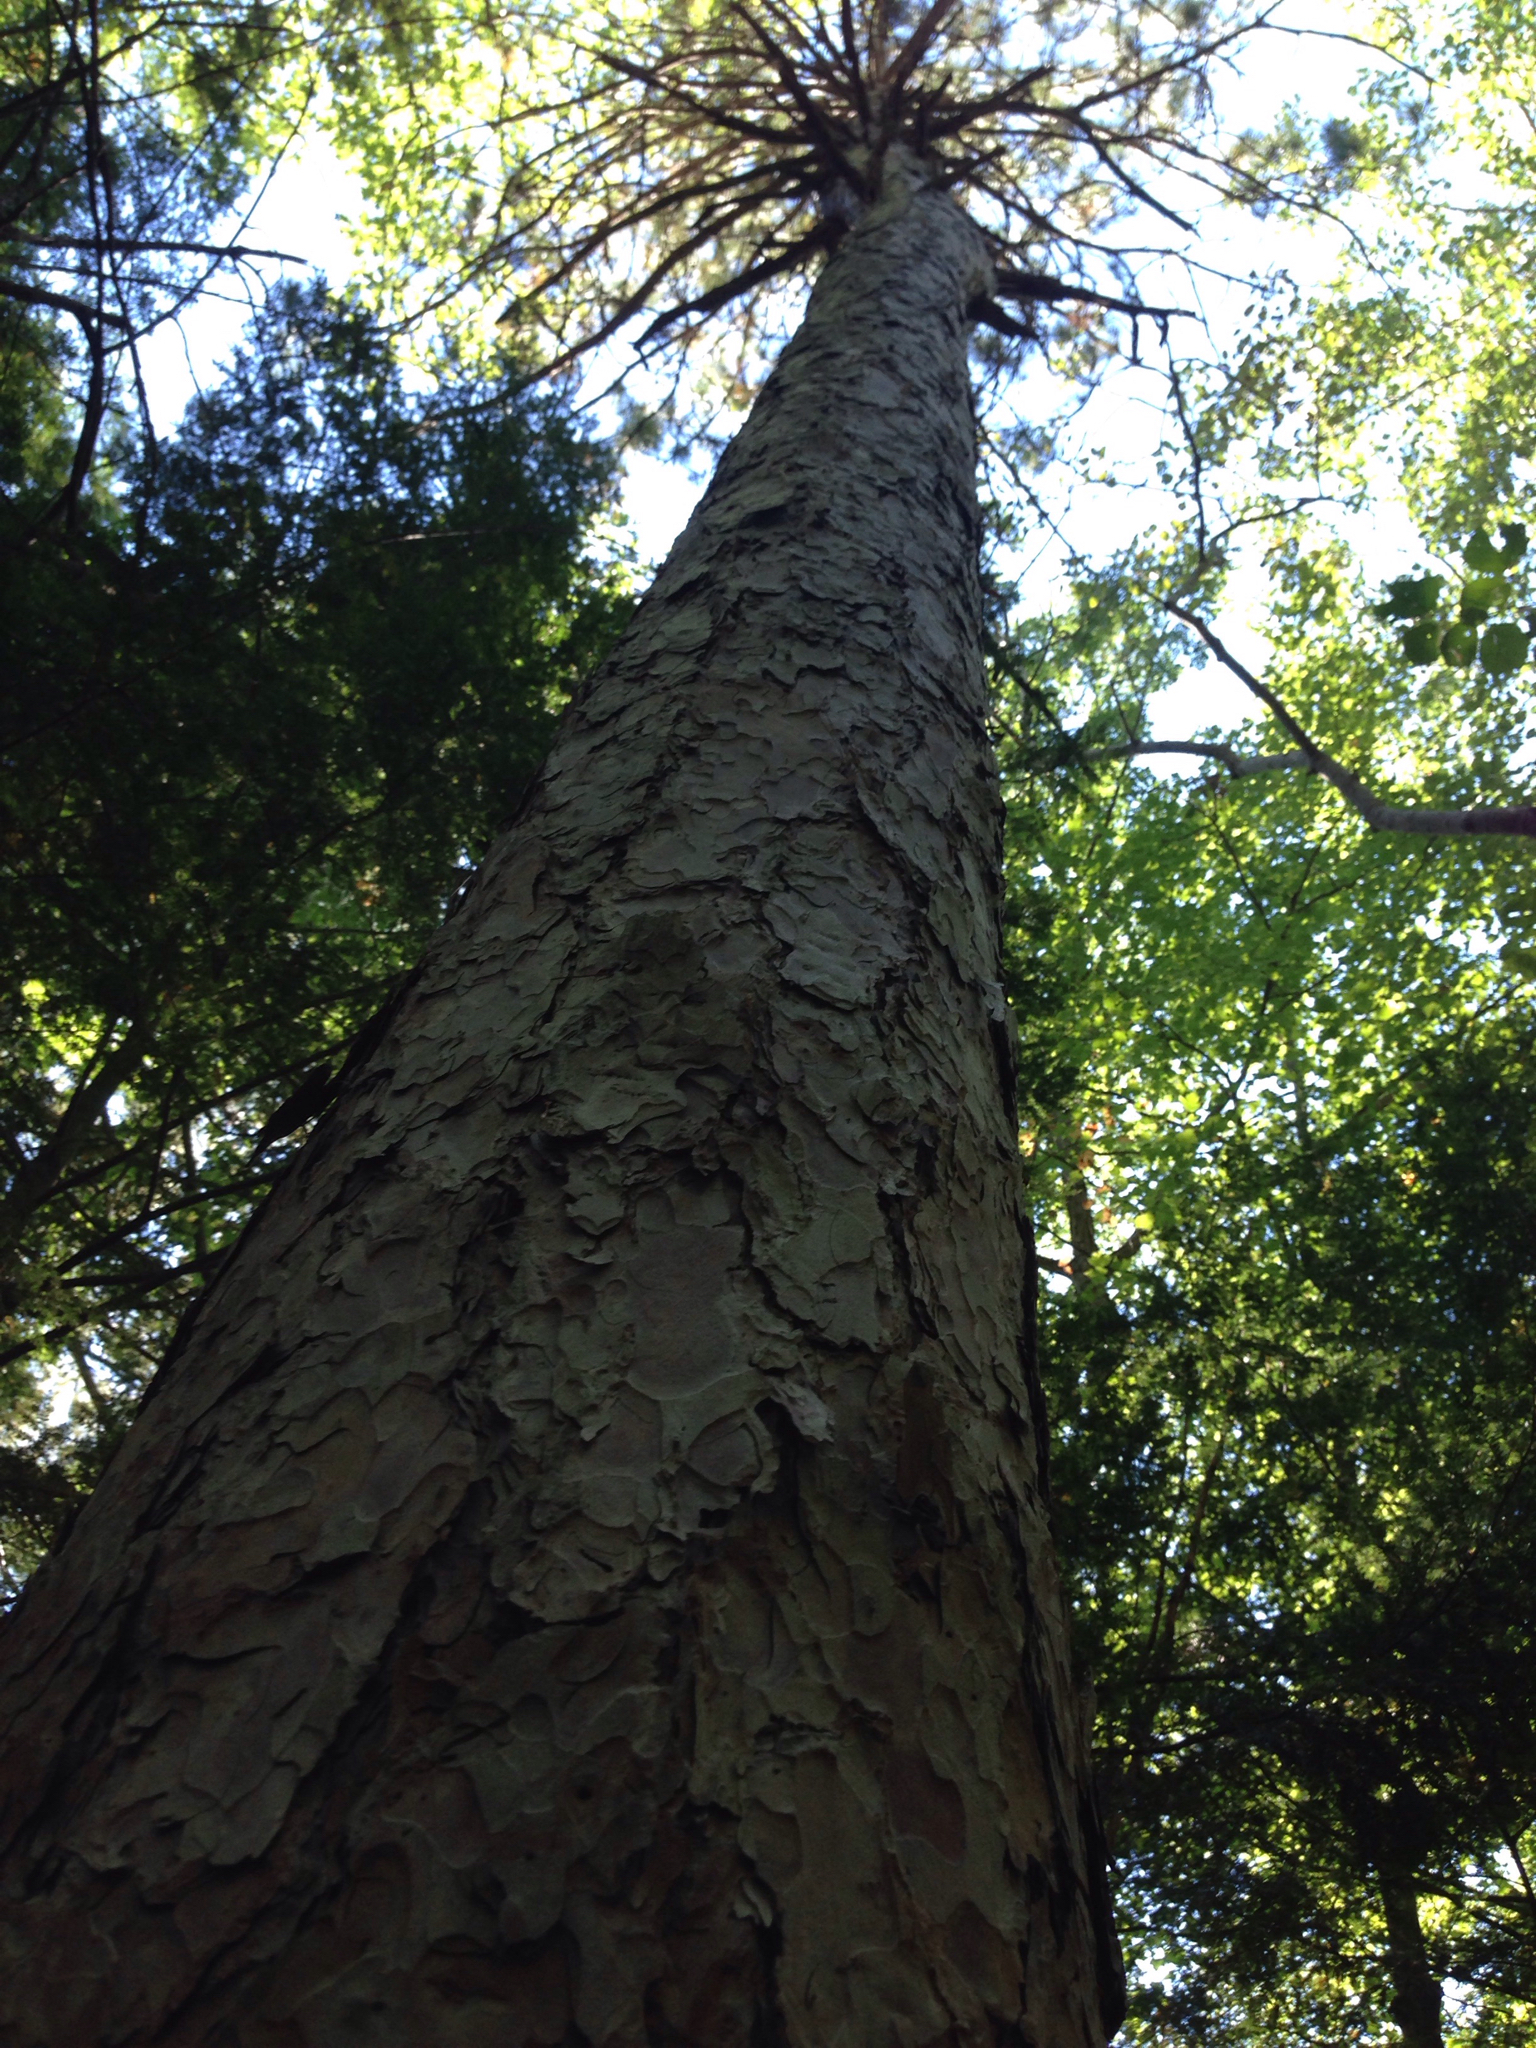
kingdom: Plantae
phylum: Tracheophyta
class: Pinopsida
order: Pinales
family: Pinaceae
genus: Pinus
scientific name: Pinus resinosa
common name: Norway pine
